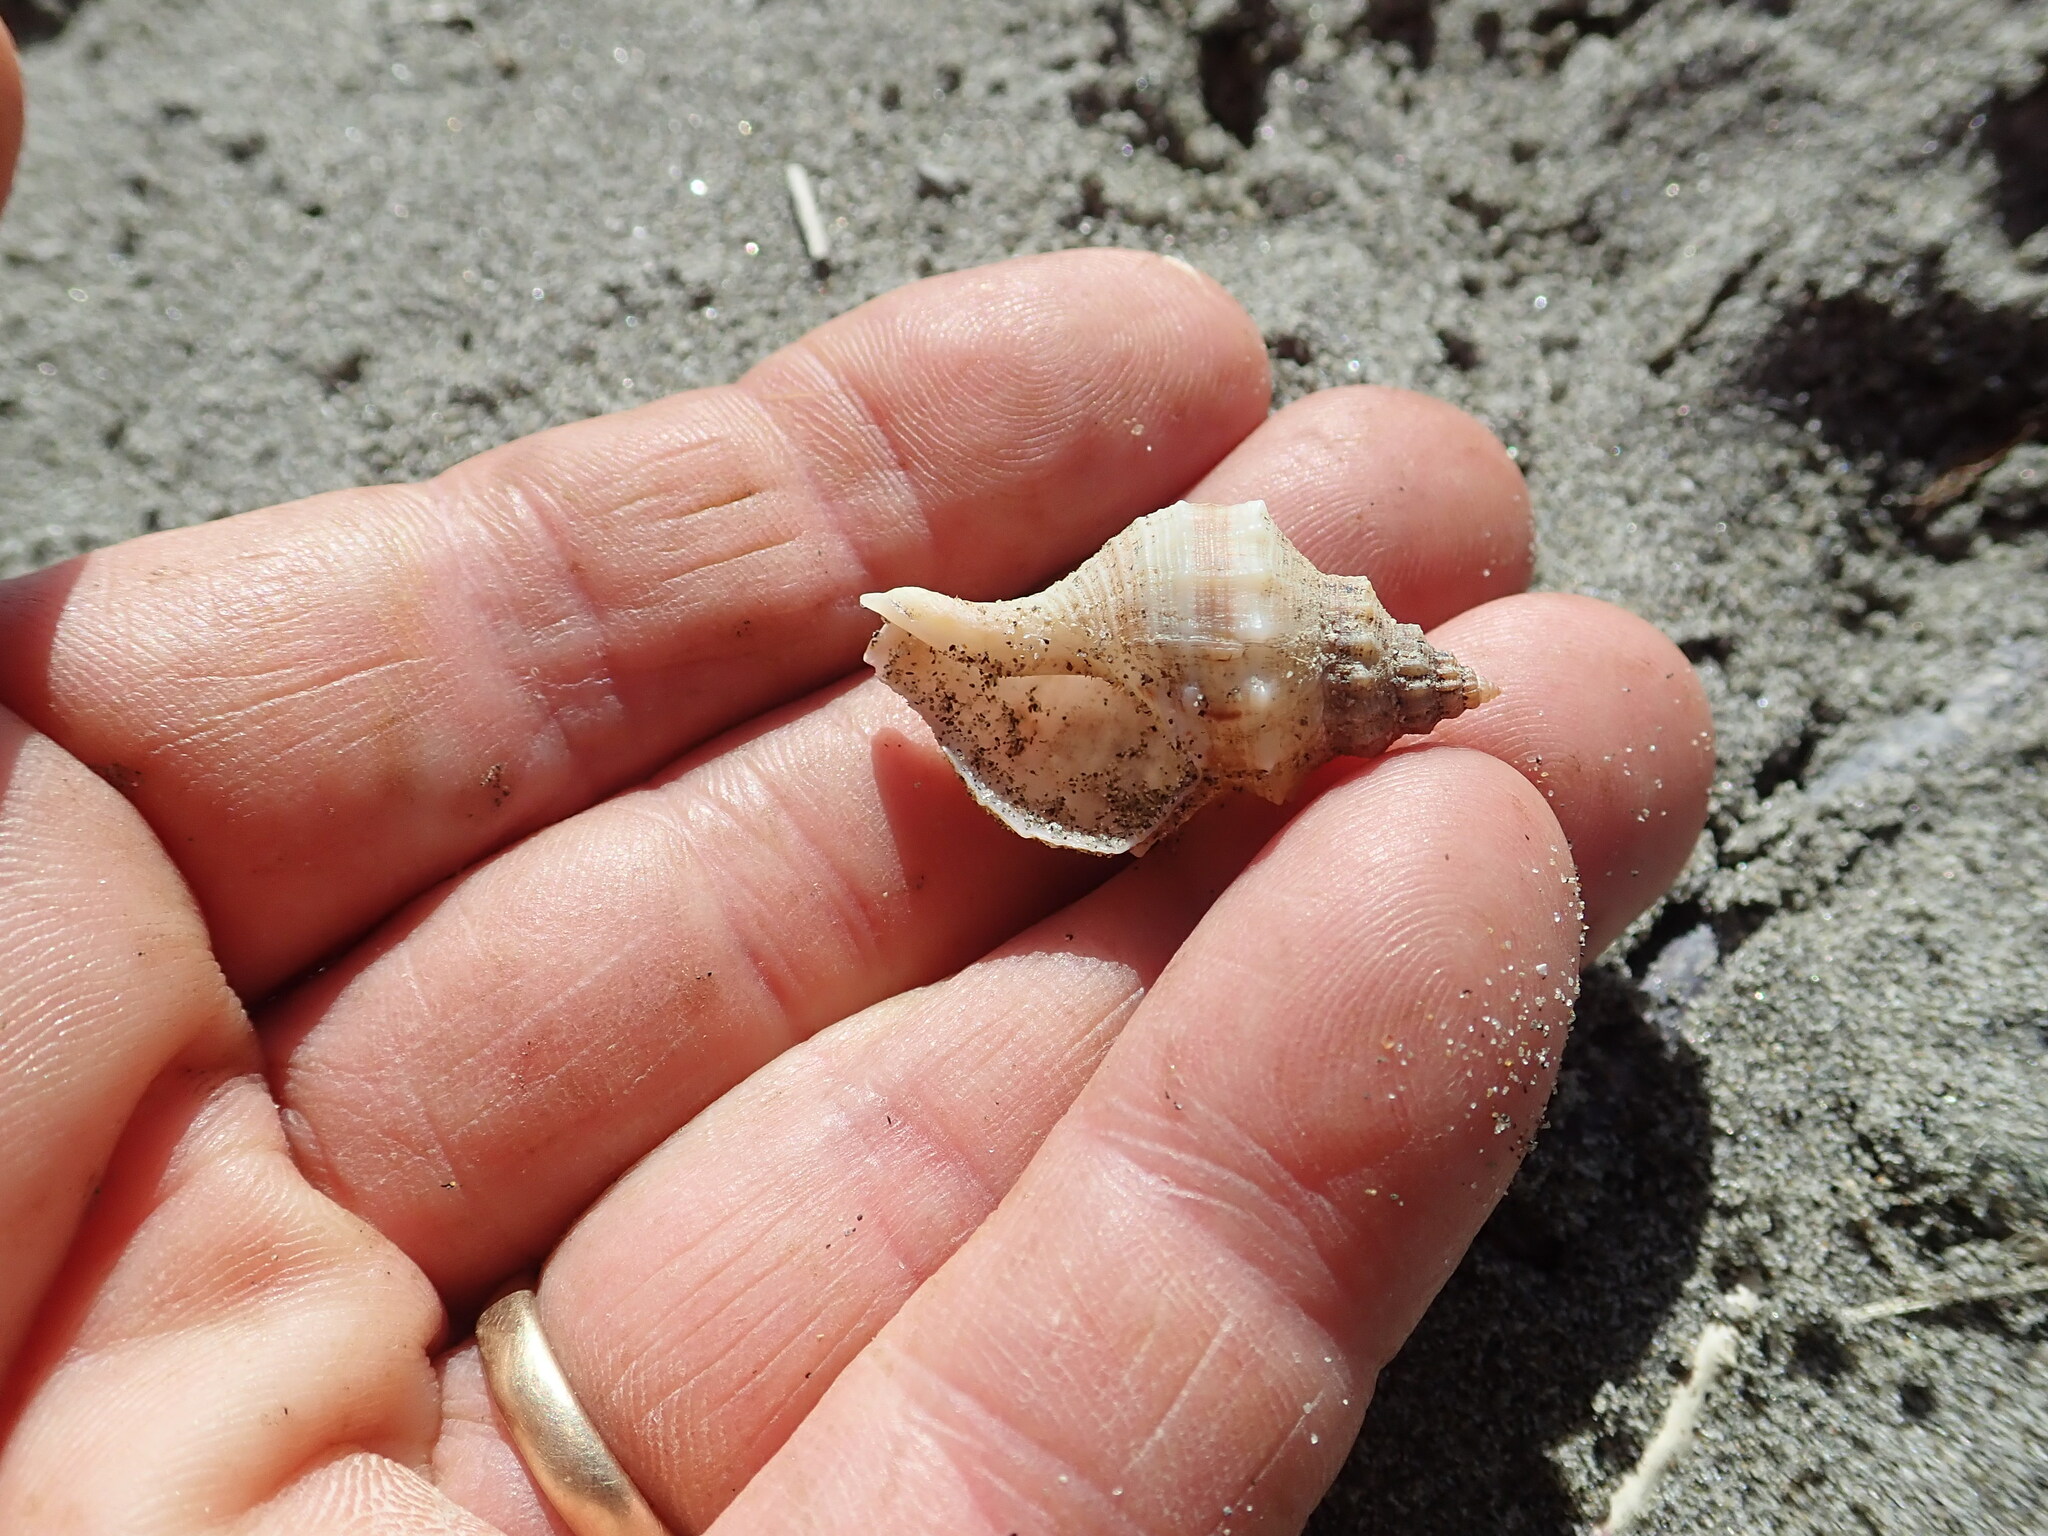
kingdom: Animalia
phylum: Mollusca
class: Gastropoda
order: Neogastropoda
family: Prosiphonidae
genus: Austrofusus
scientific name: Austrofusus glans
